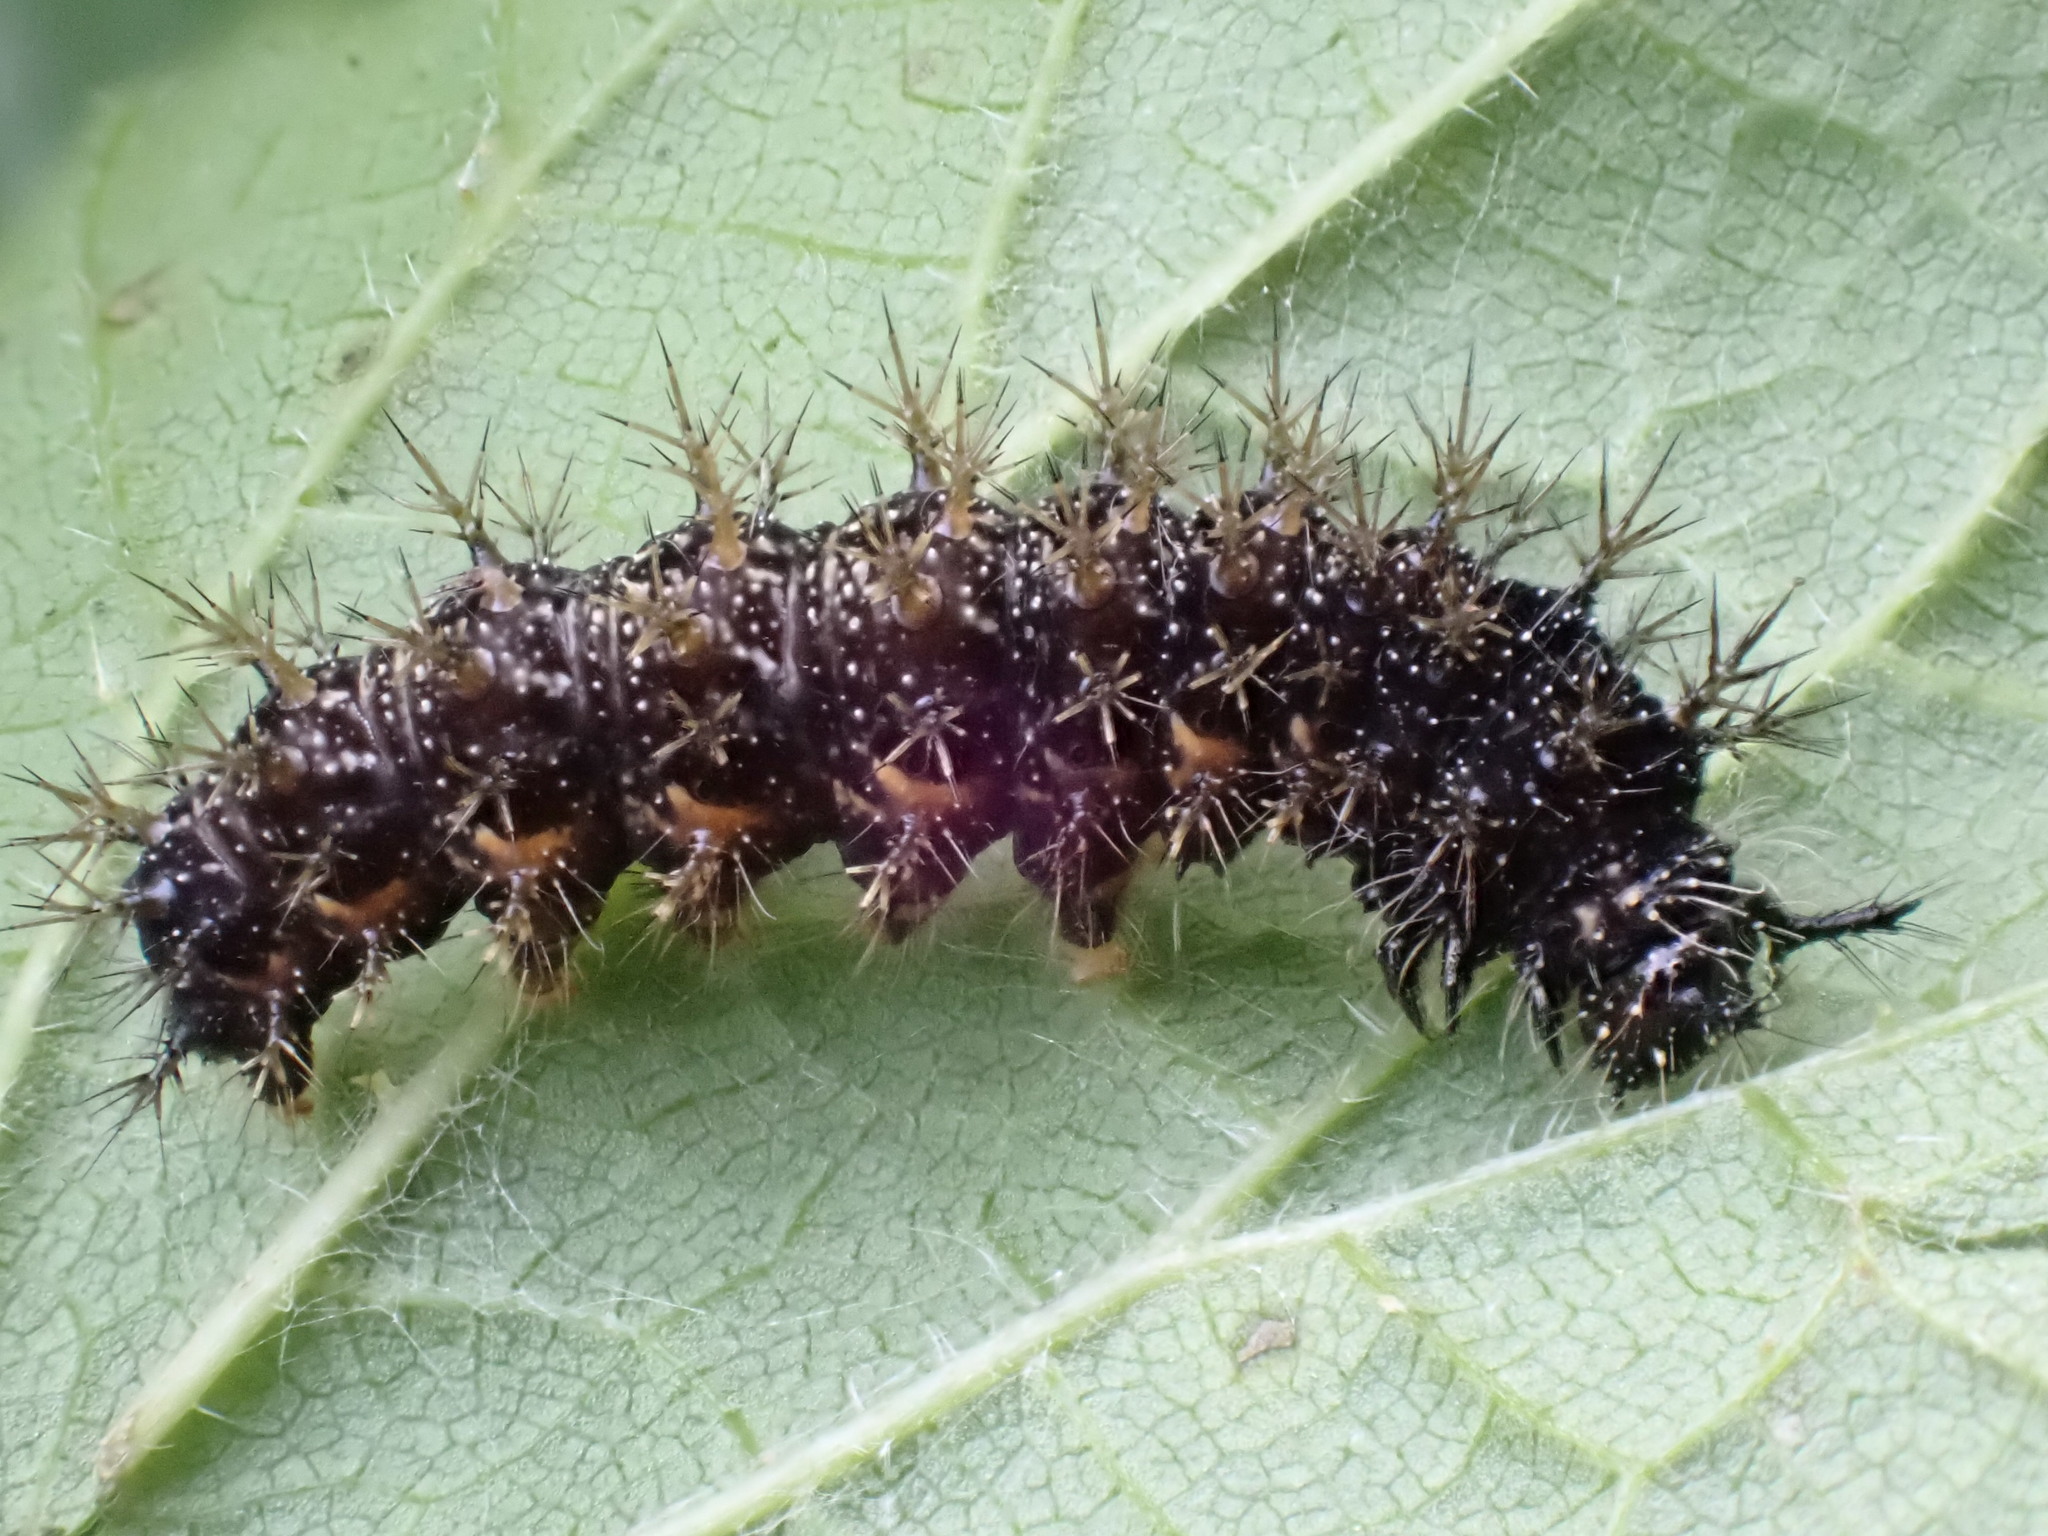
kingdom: Animalia
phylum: Arthropoda
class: Insecta
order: Lepidoptera
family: Nymphalidae
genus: Araschnia
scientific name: Araschnia levana
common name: Map butterfly
